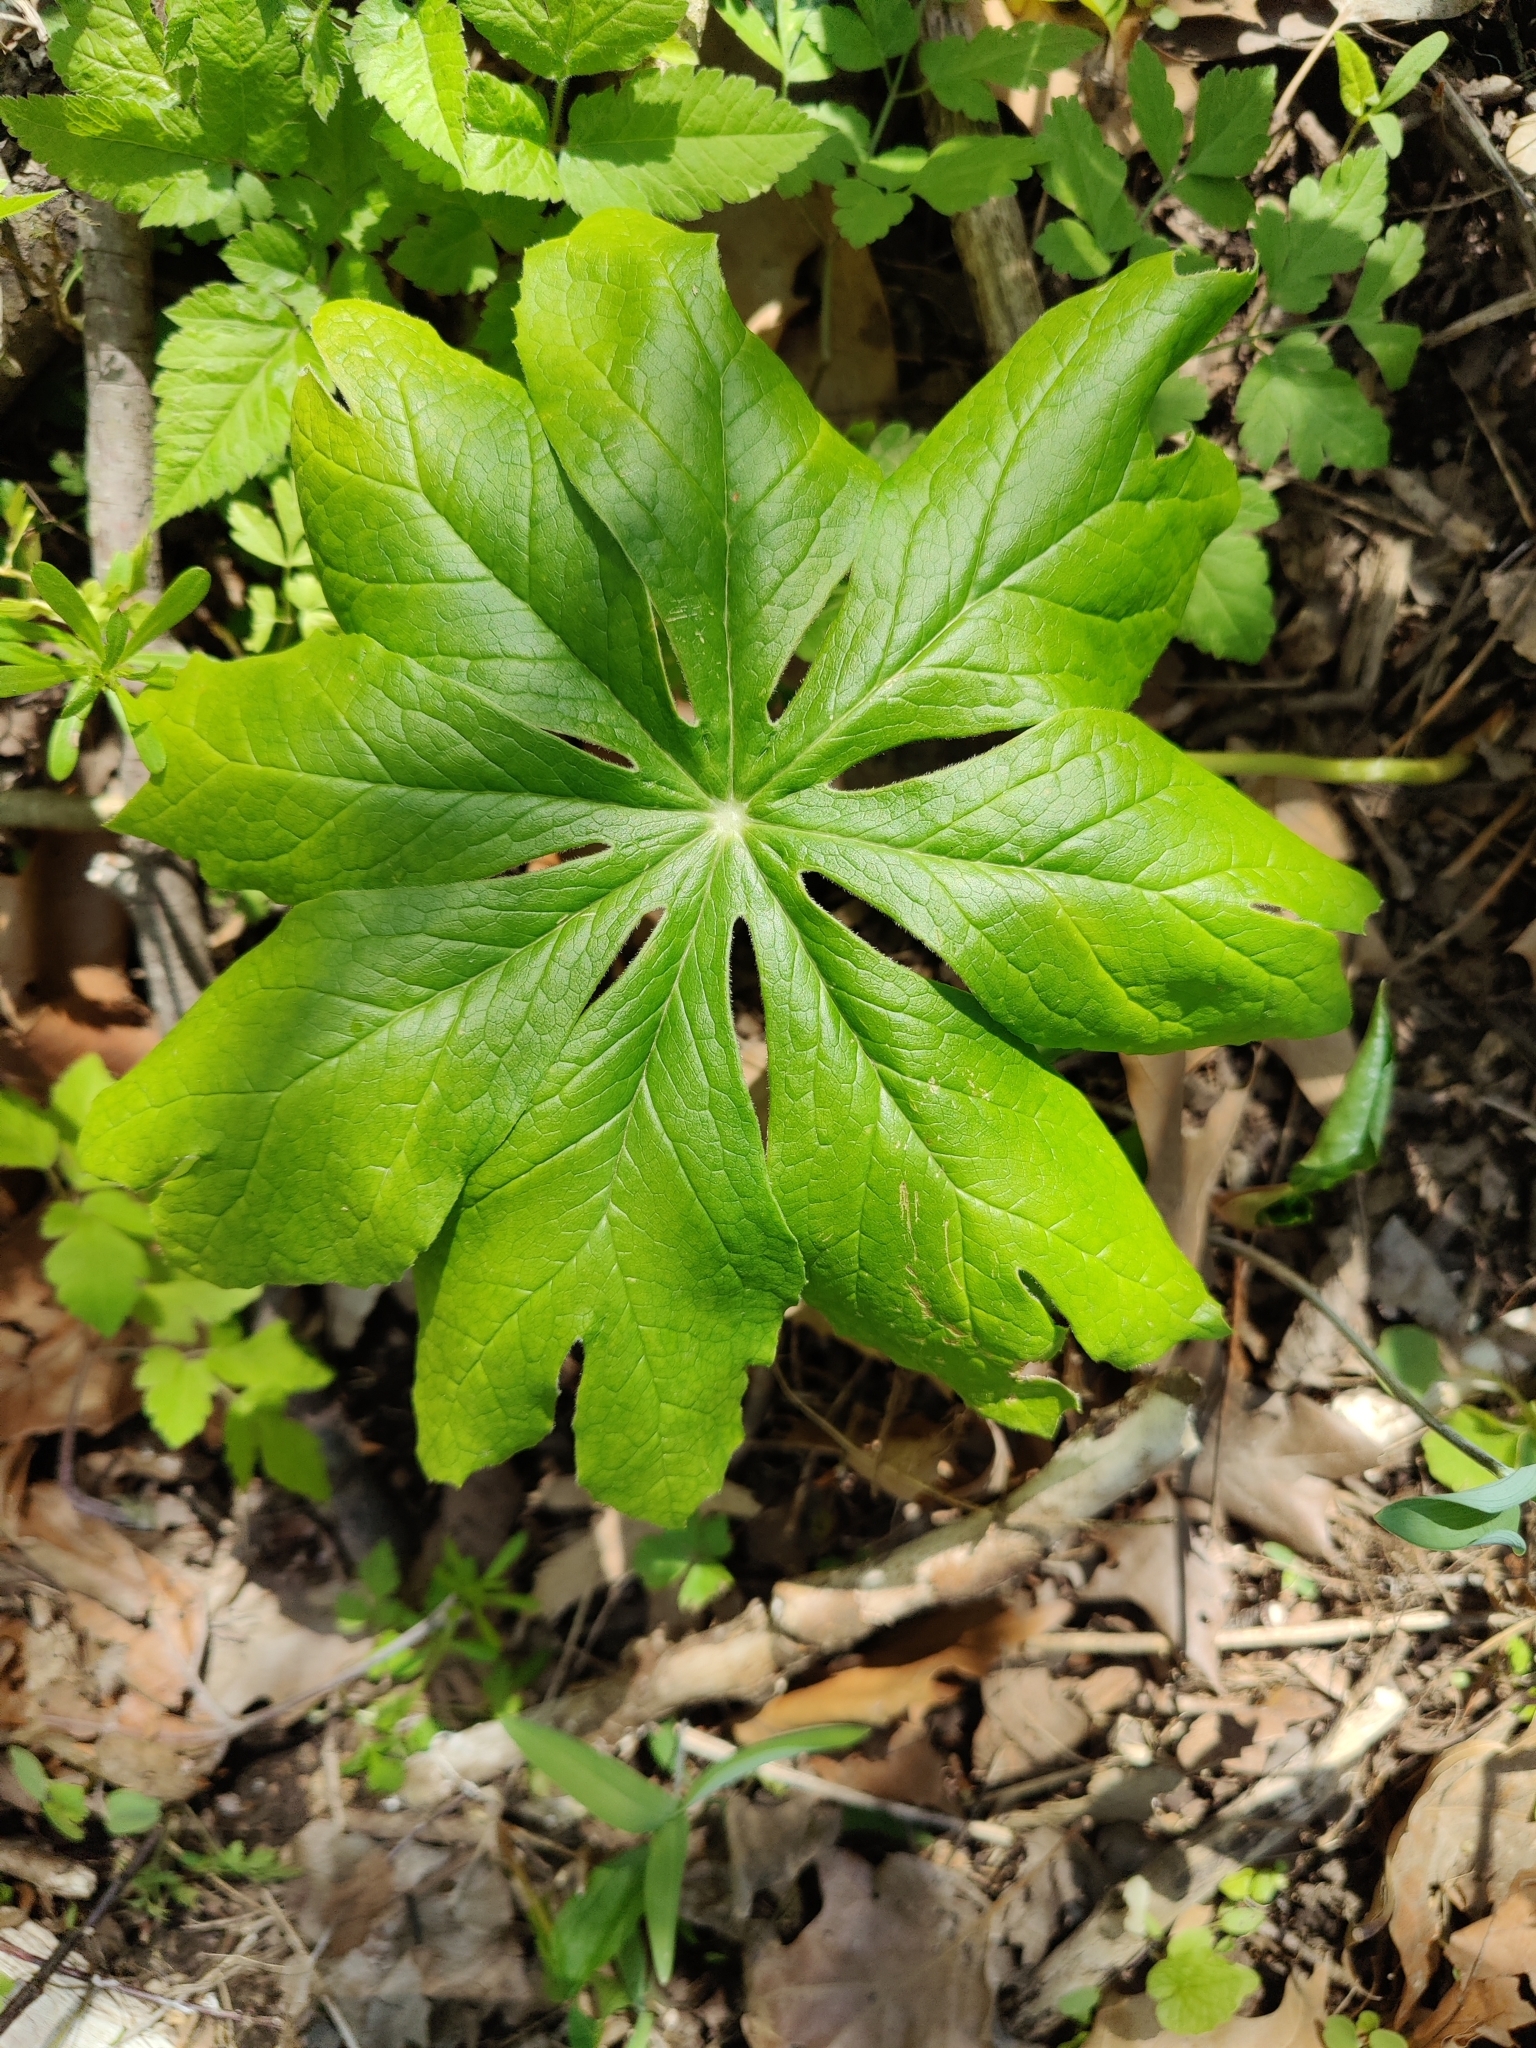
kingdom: Plantae
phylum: Tracheophyta
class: Magnoliopsida
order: Ranunculales
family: Berberidaceae
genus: Podophyllum
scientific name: Podophyllum peltatum
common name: Wild mandrake
